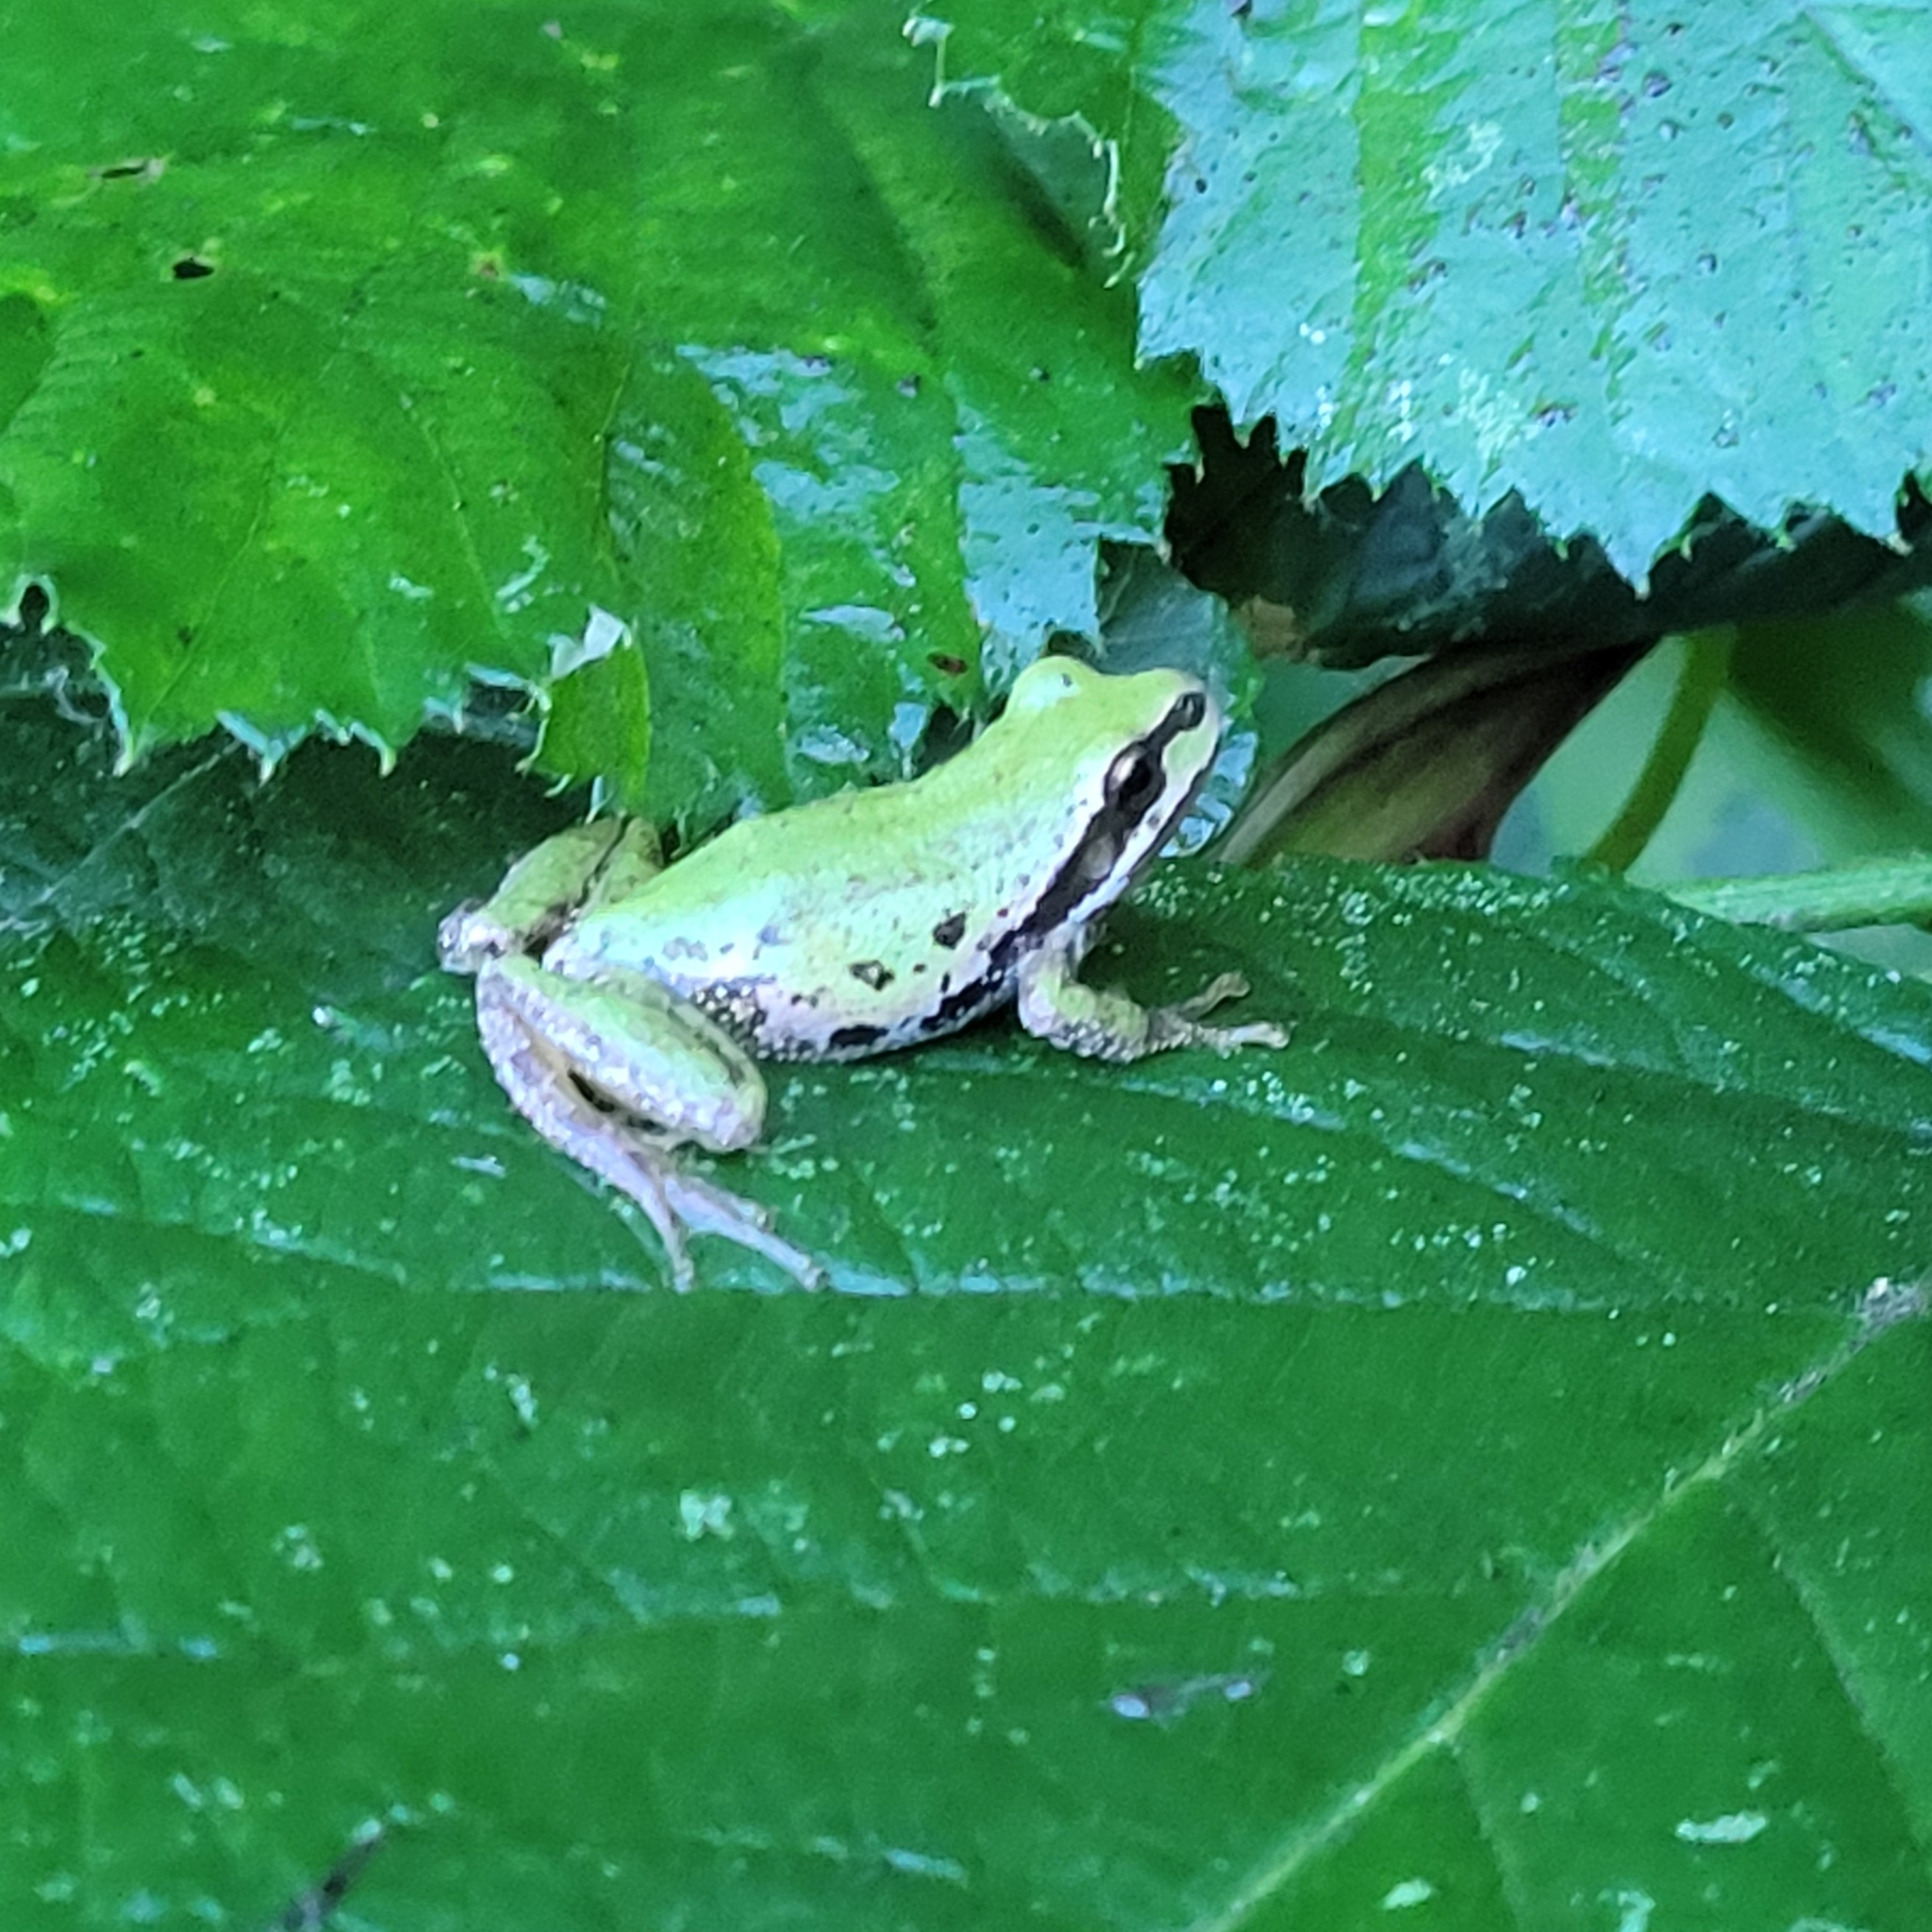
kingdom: Animalia
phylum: Chordata
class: Amphibia
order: Anura
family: Hylidae
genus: Pseudacris
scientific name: Pseudacris regilla
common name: Pacific chorus frog
